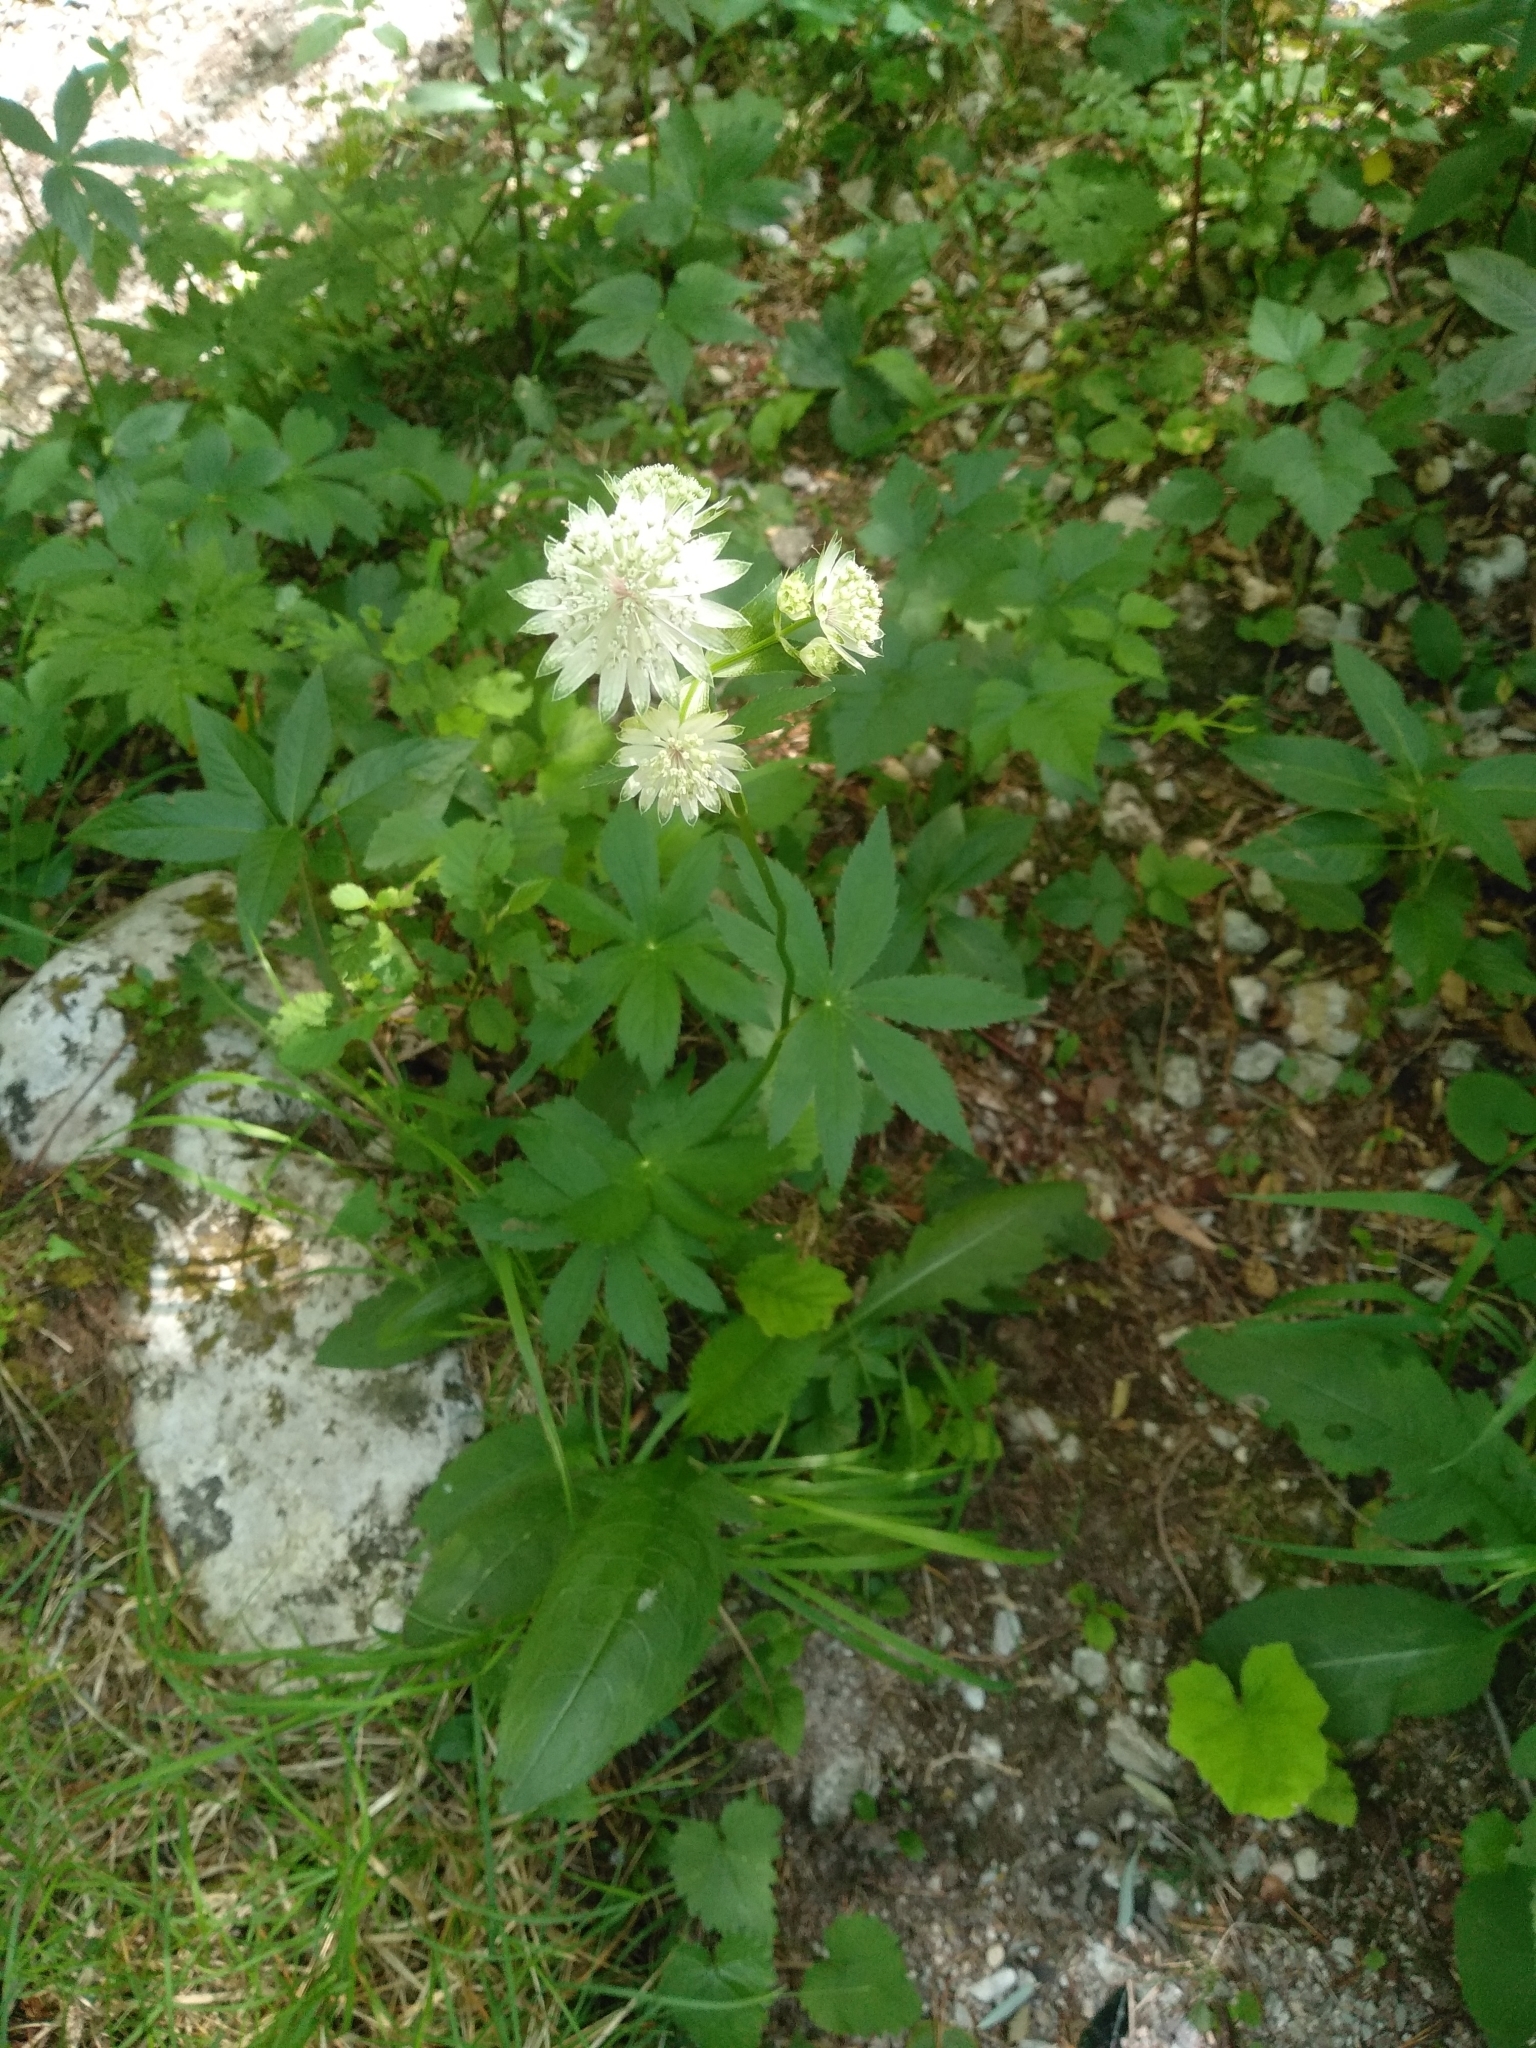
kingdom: Plantae
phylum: Tracheophyta
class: Magnoliopsida
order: Apiales
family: Apiaceae
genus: Astrantia
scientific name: Astrantia major
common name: Greater masterwort
